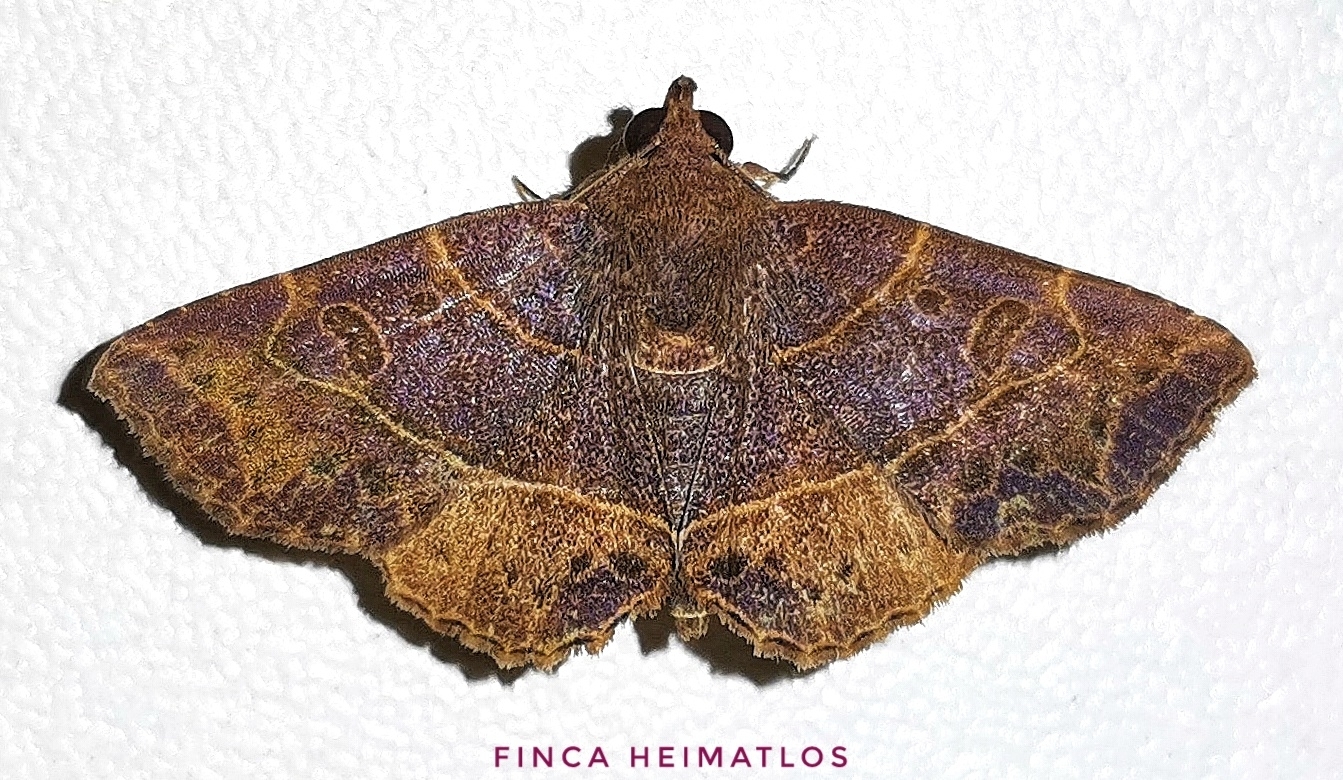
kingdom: Animalia
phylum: Arthropoda
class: Insecta
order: Lepidoptera
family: Erebidae
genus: Antiblemma
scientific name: Antiblemma phaedra
